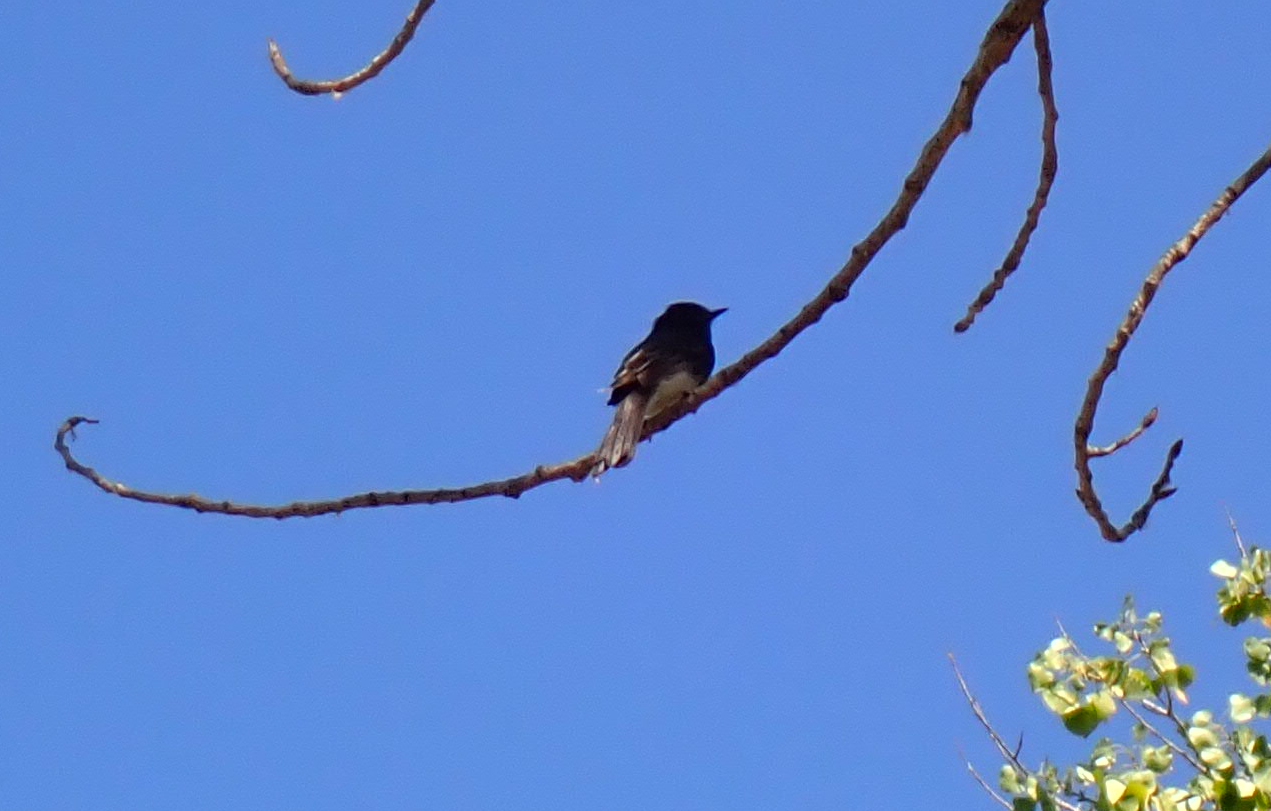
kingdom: Animalia
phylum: Chordata
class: Aves
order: Passeriformes
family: Tyrannidae
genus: Sayornis
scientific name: Sayornis nigricans
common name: Black phoebe
